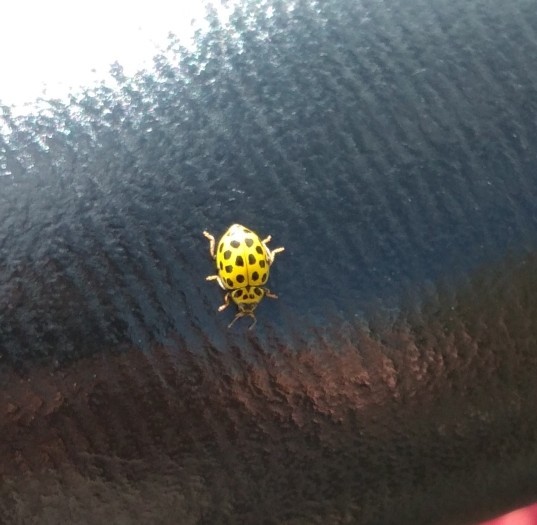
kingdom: Animalia
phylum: Arthropoda
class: Insecta
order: Coleoptera
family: Coccinellidae
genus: Psyllobora
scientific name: Psyllobora vigintiduopunctata
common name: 22-spot ladybird
